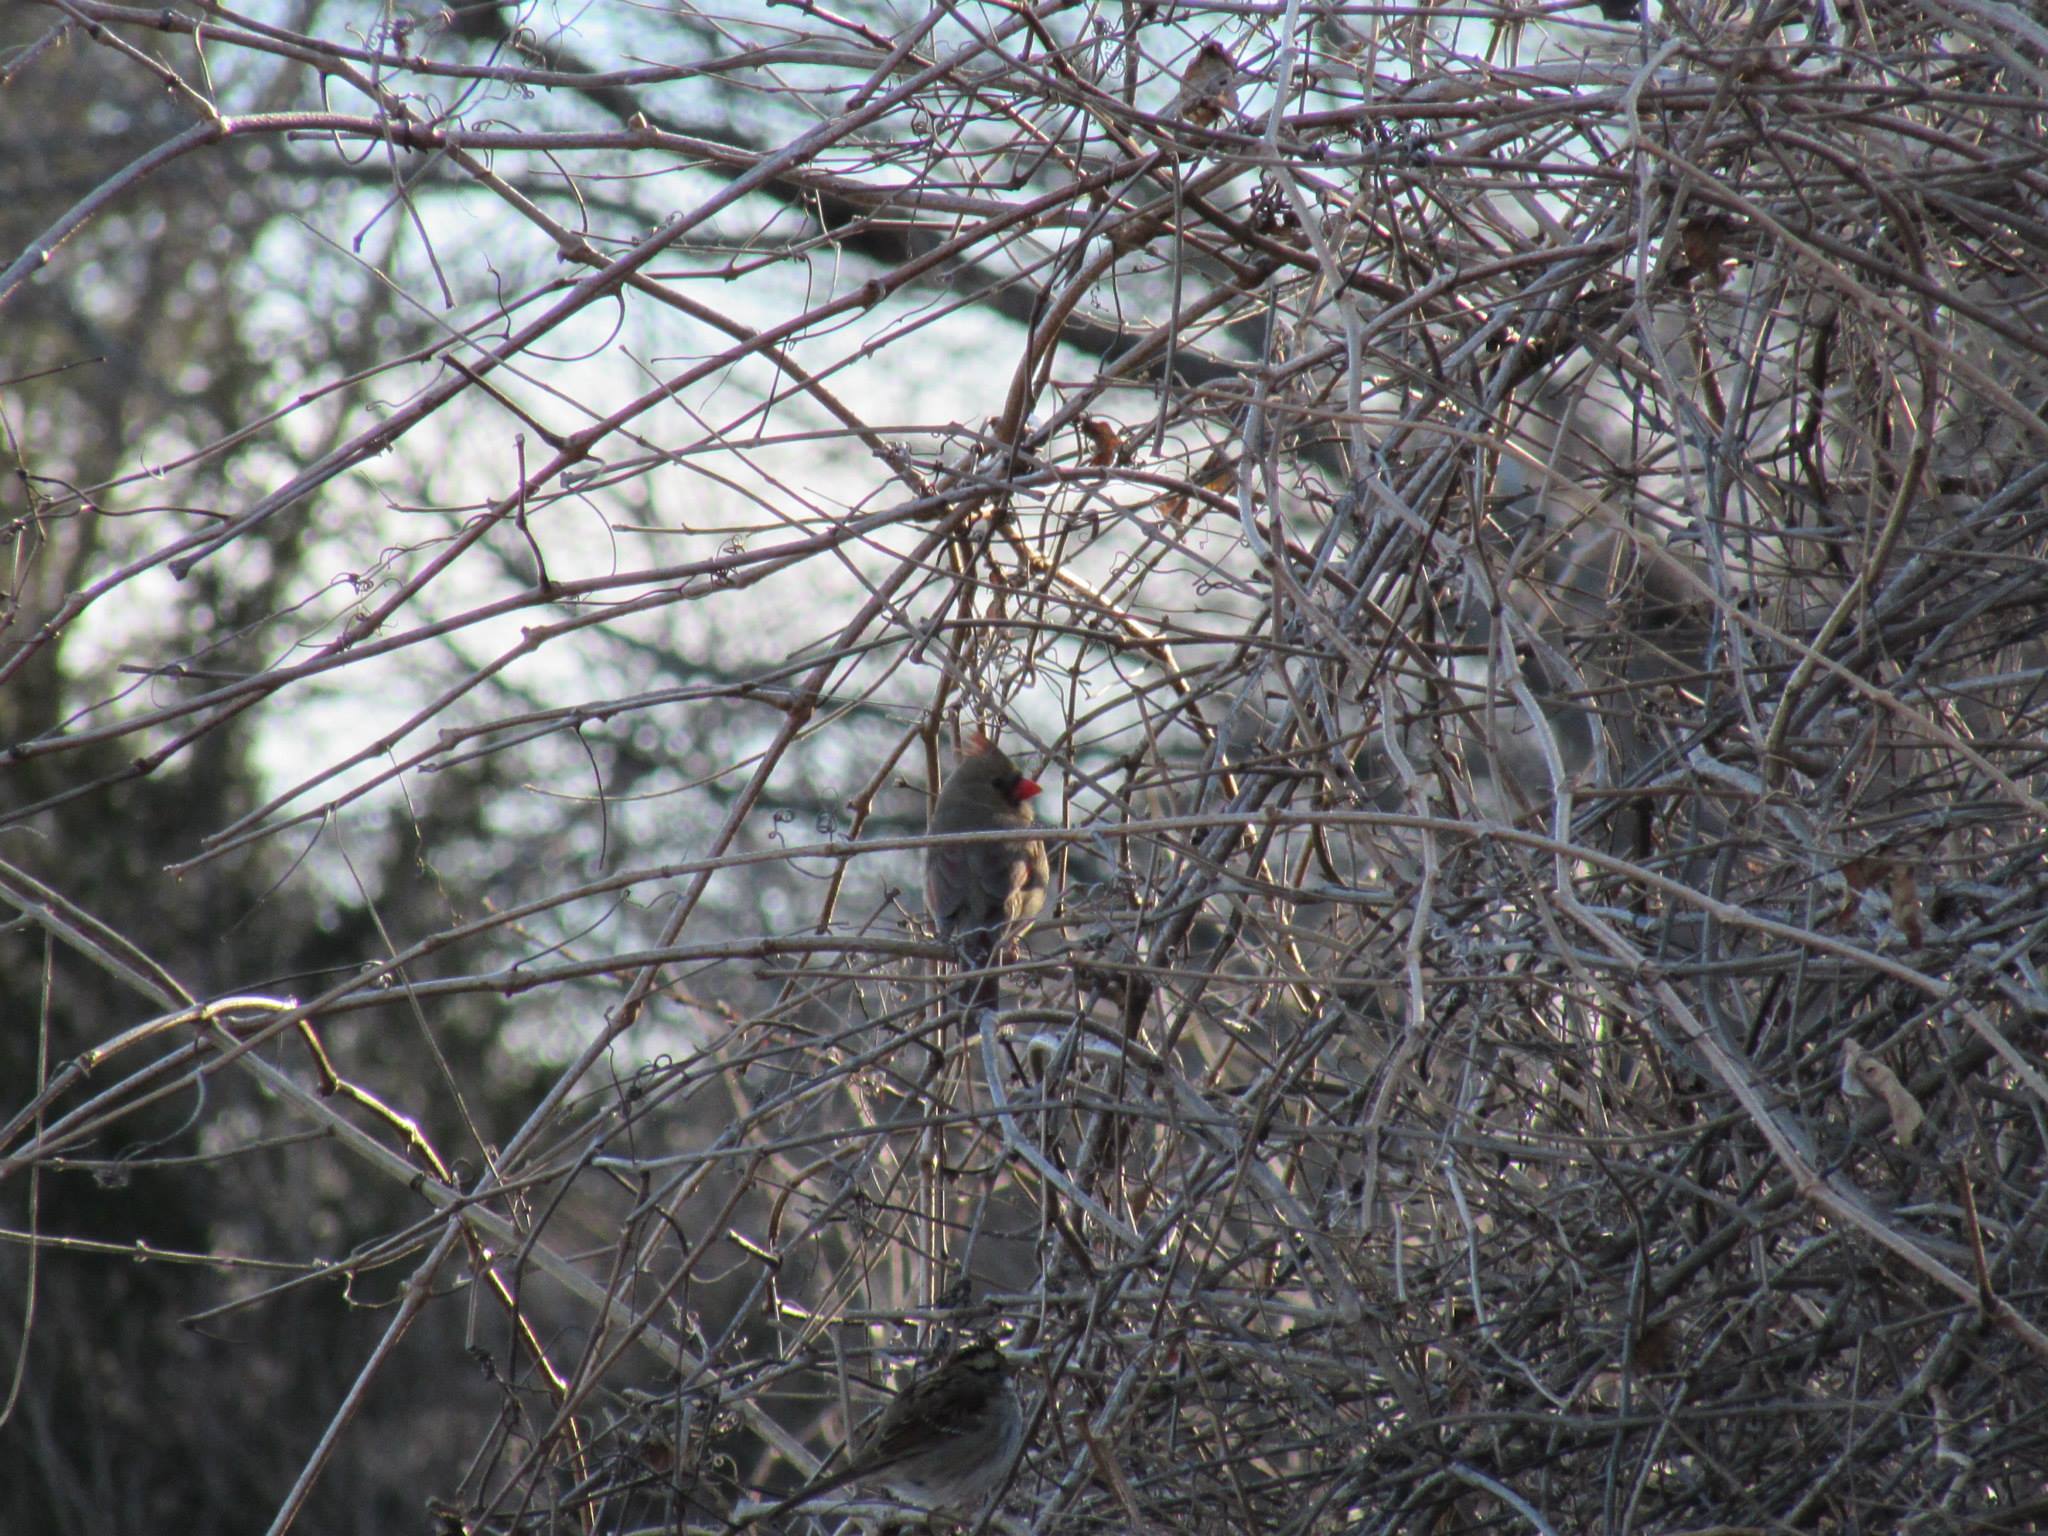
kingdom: Animalia
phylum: Chordata
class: Aves
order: Passeriformes
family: Cardinalidae
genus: Cardinalis
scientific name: Cardinalis cardinalis
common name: Northern cardinal
